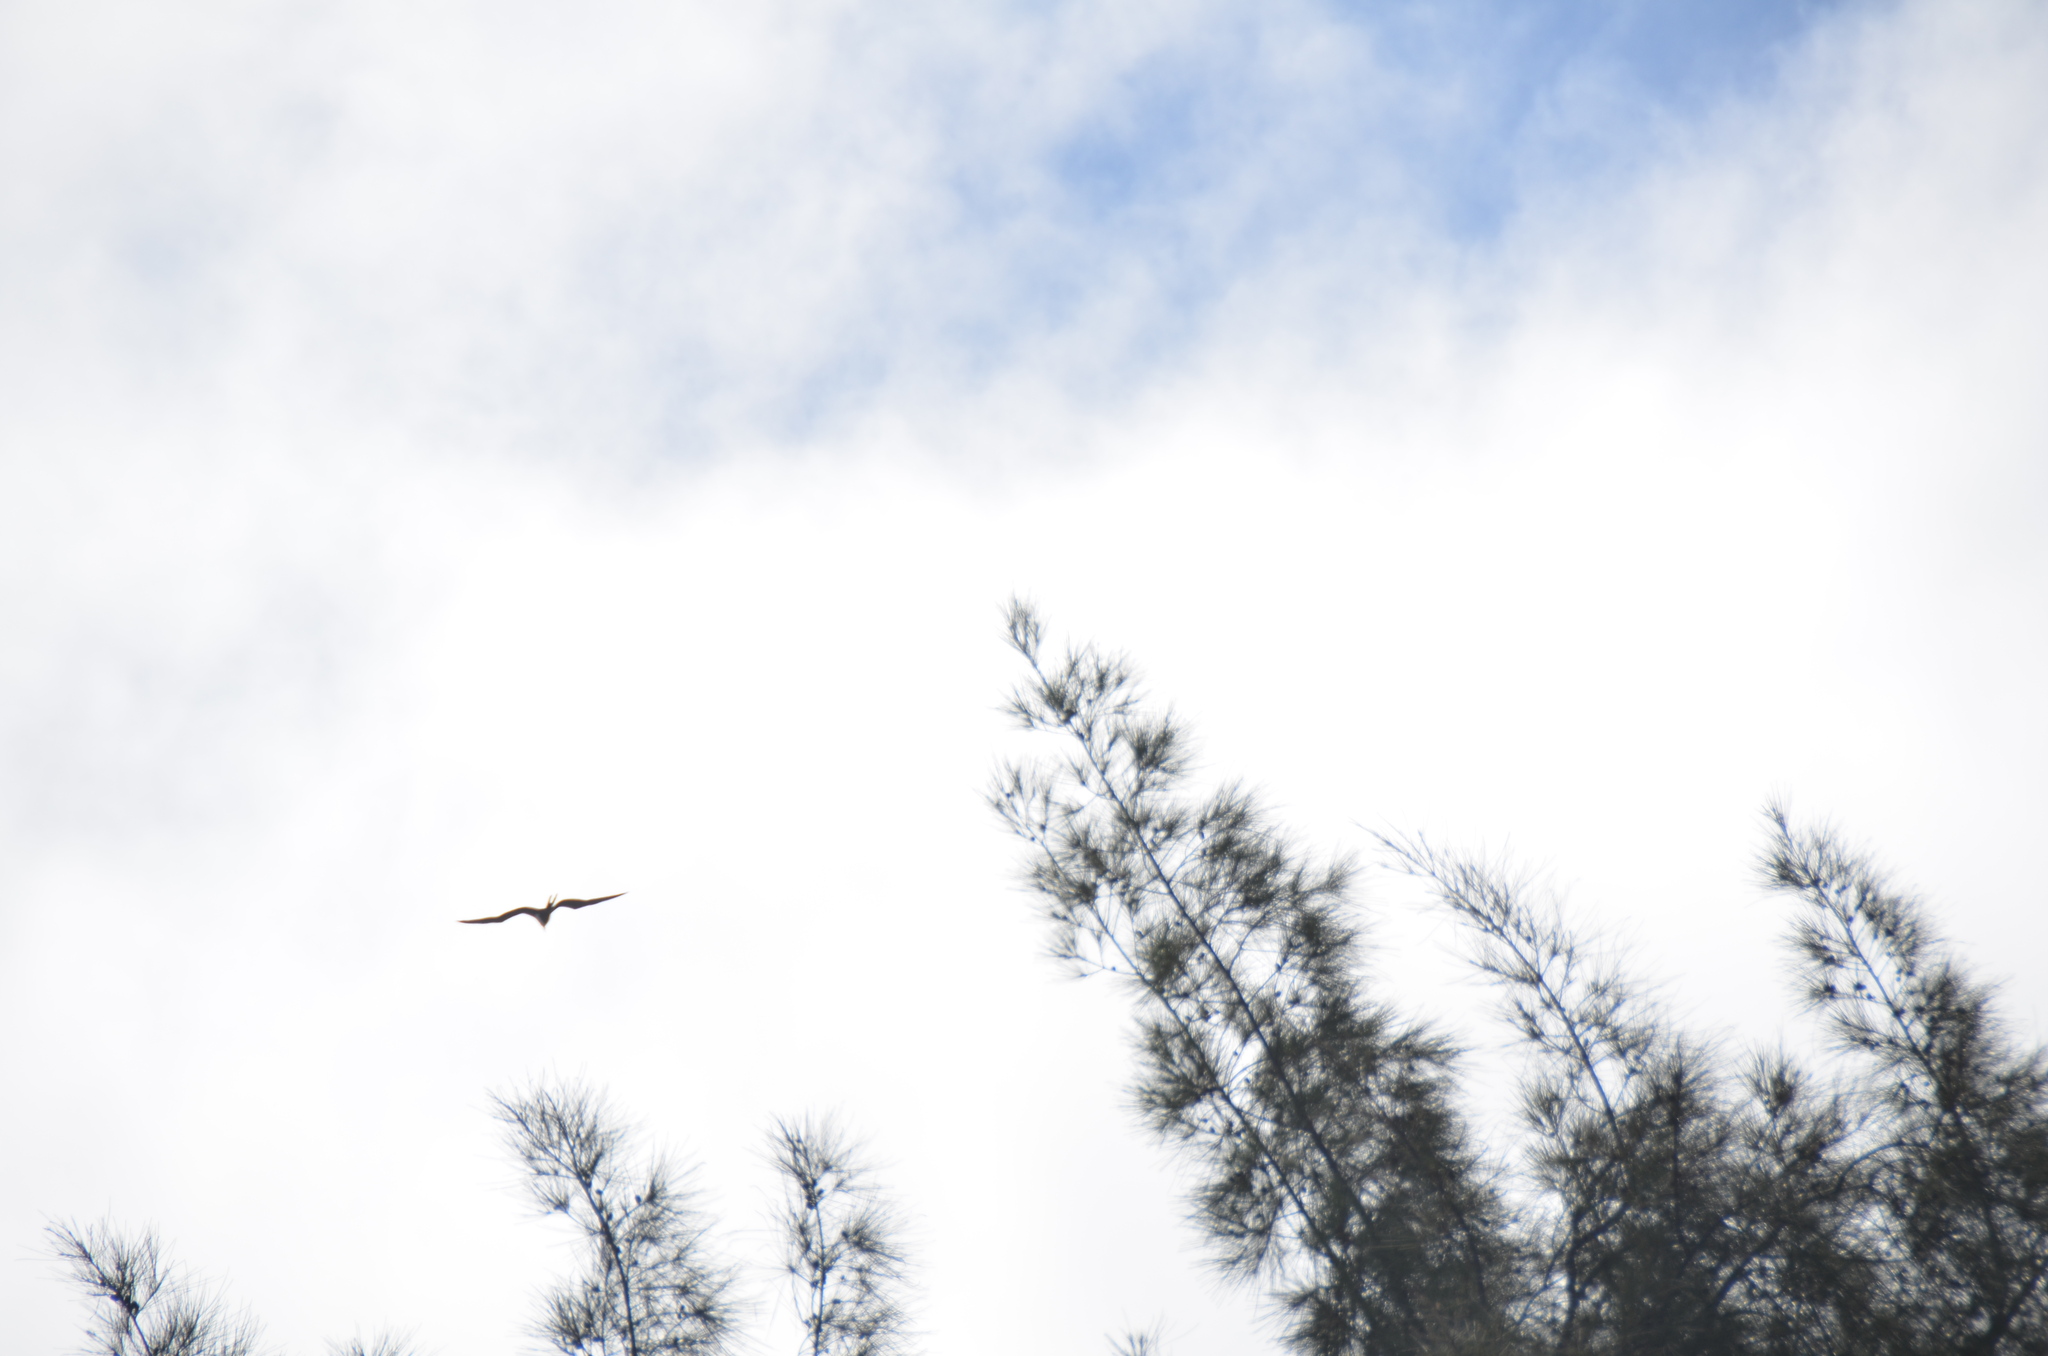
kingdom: Animalia
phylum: Chordata
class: Aves
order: Suliformes
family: Fregatidae
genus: Fregata
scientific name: Fregata minor
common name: Great frigatebird
